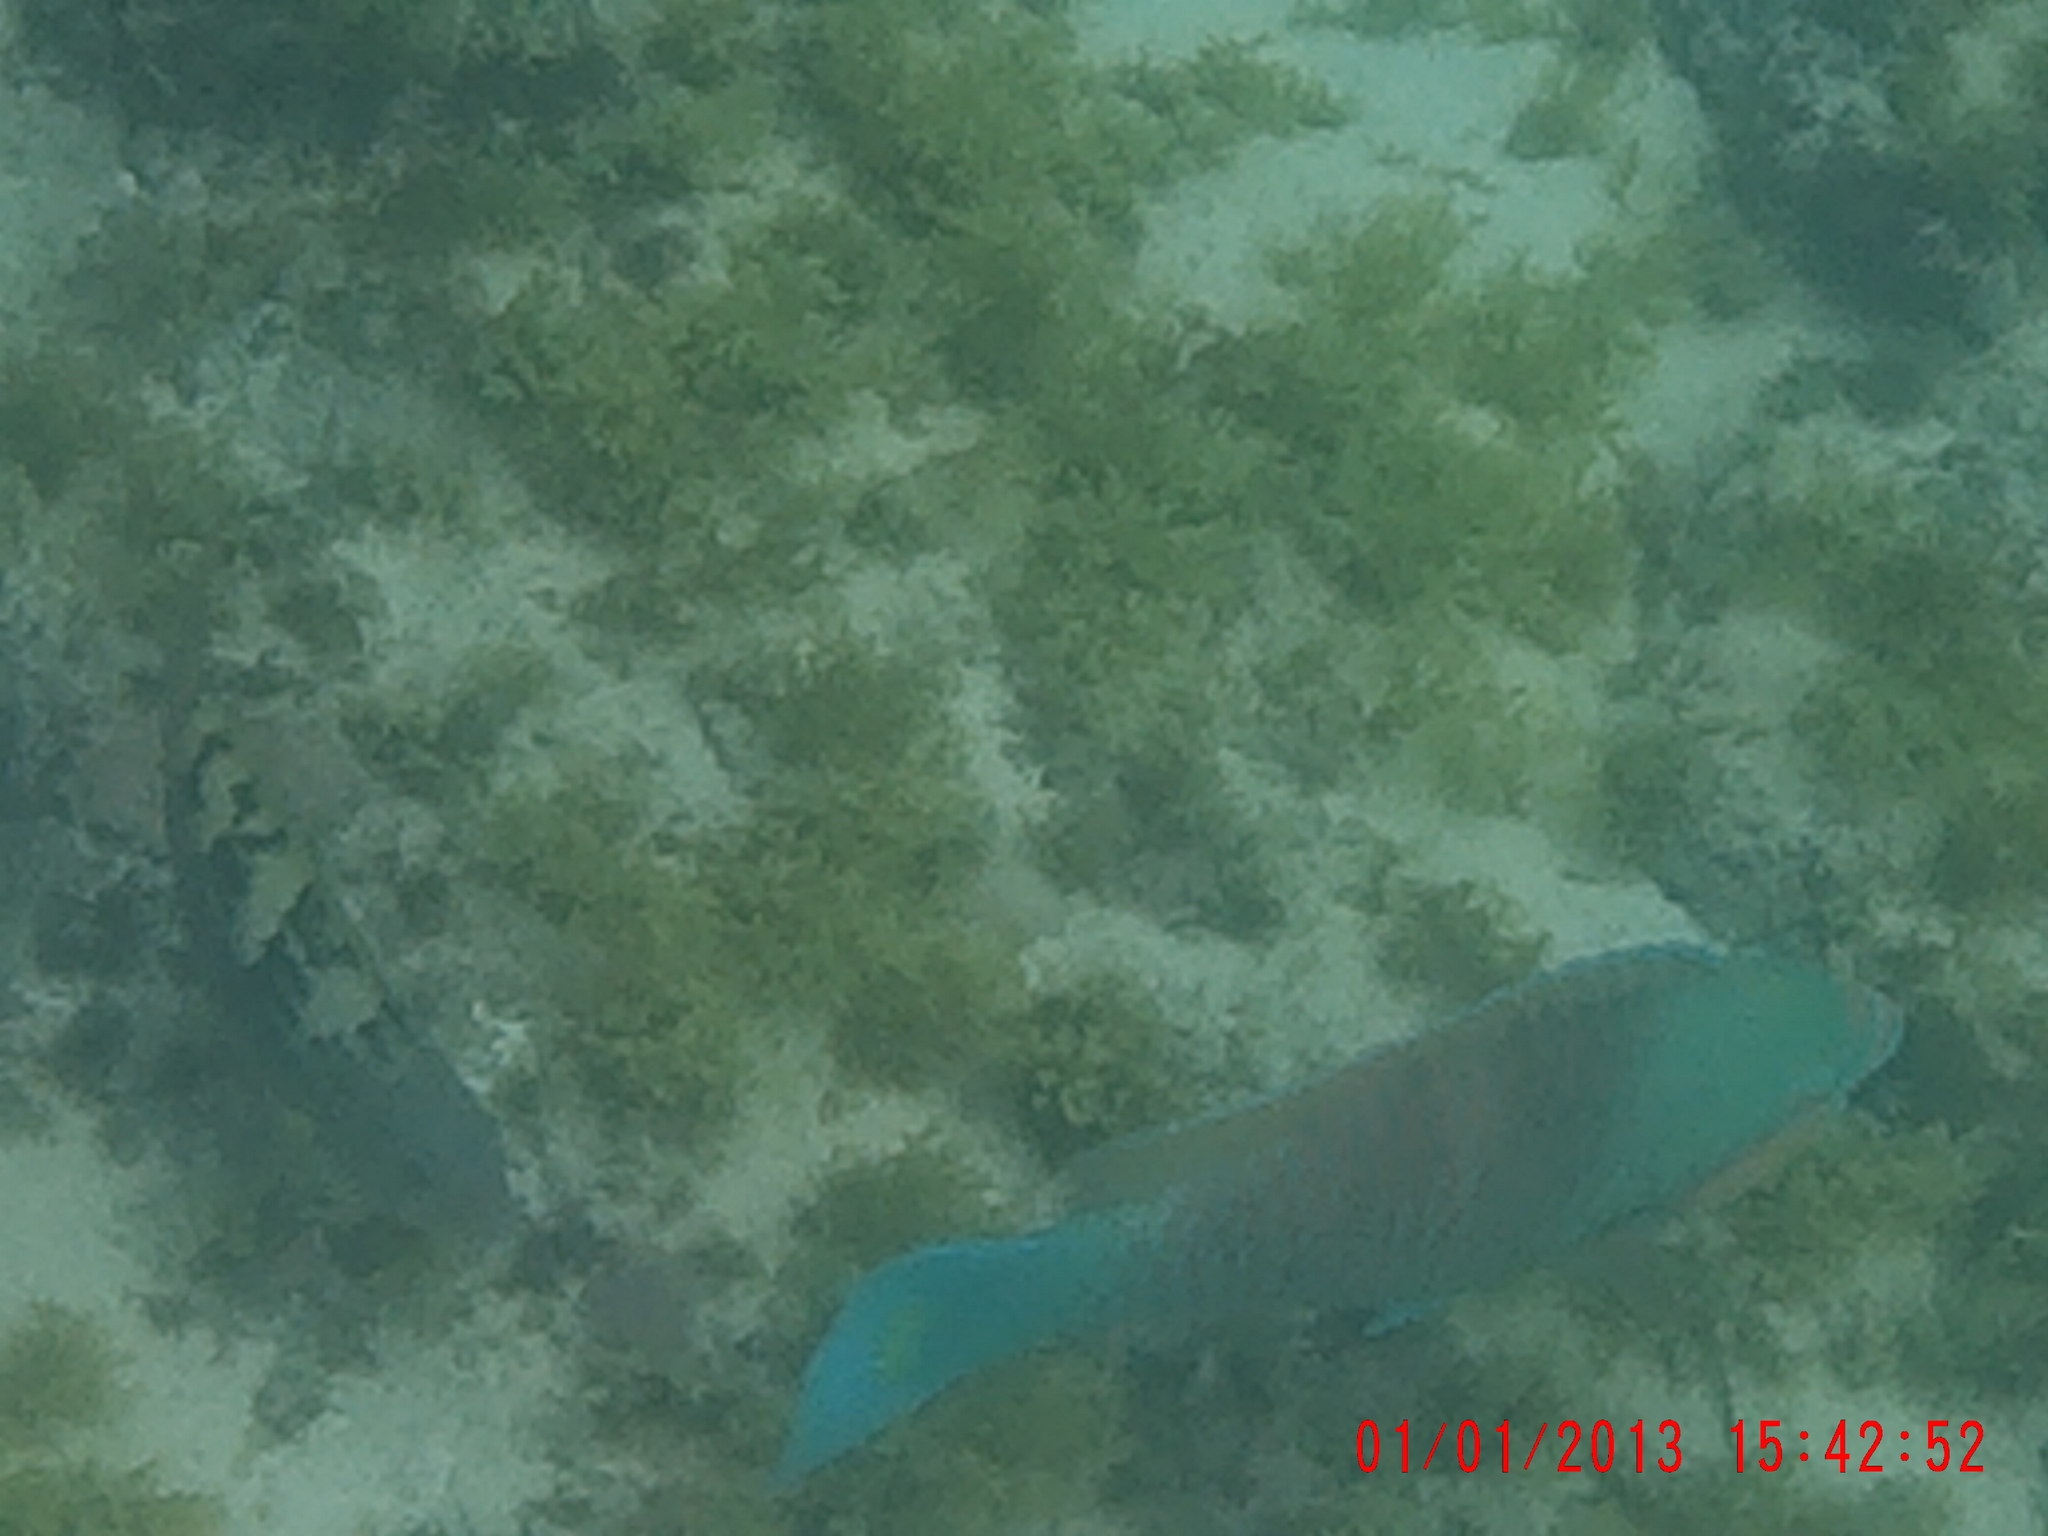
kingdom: Animalia
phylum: Chordata
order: Perciformes
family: Scaridae
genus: Scarus
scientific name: Scarus hoefleri
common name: Guinean parrotfish
